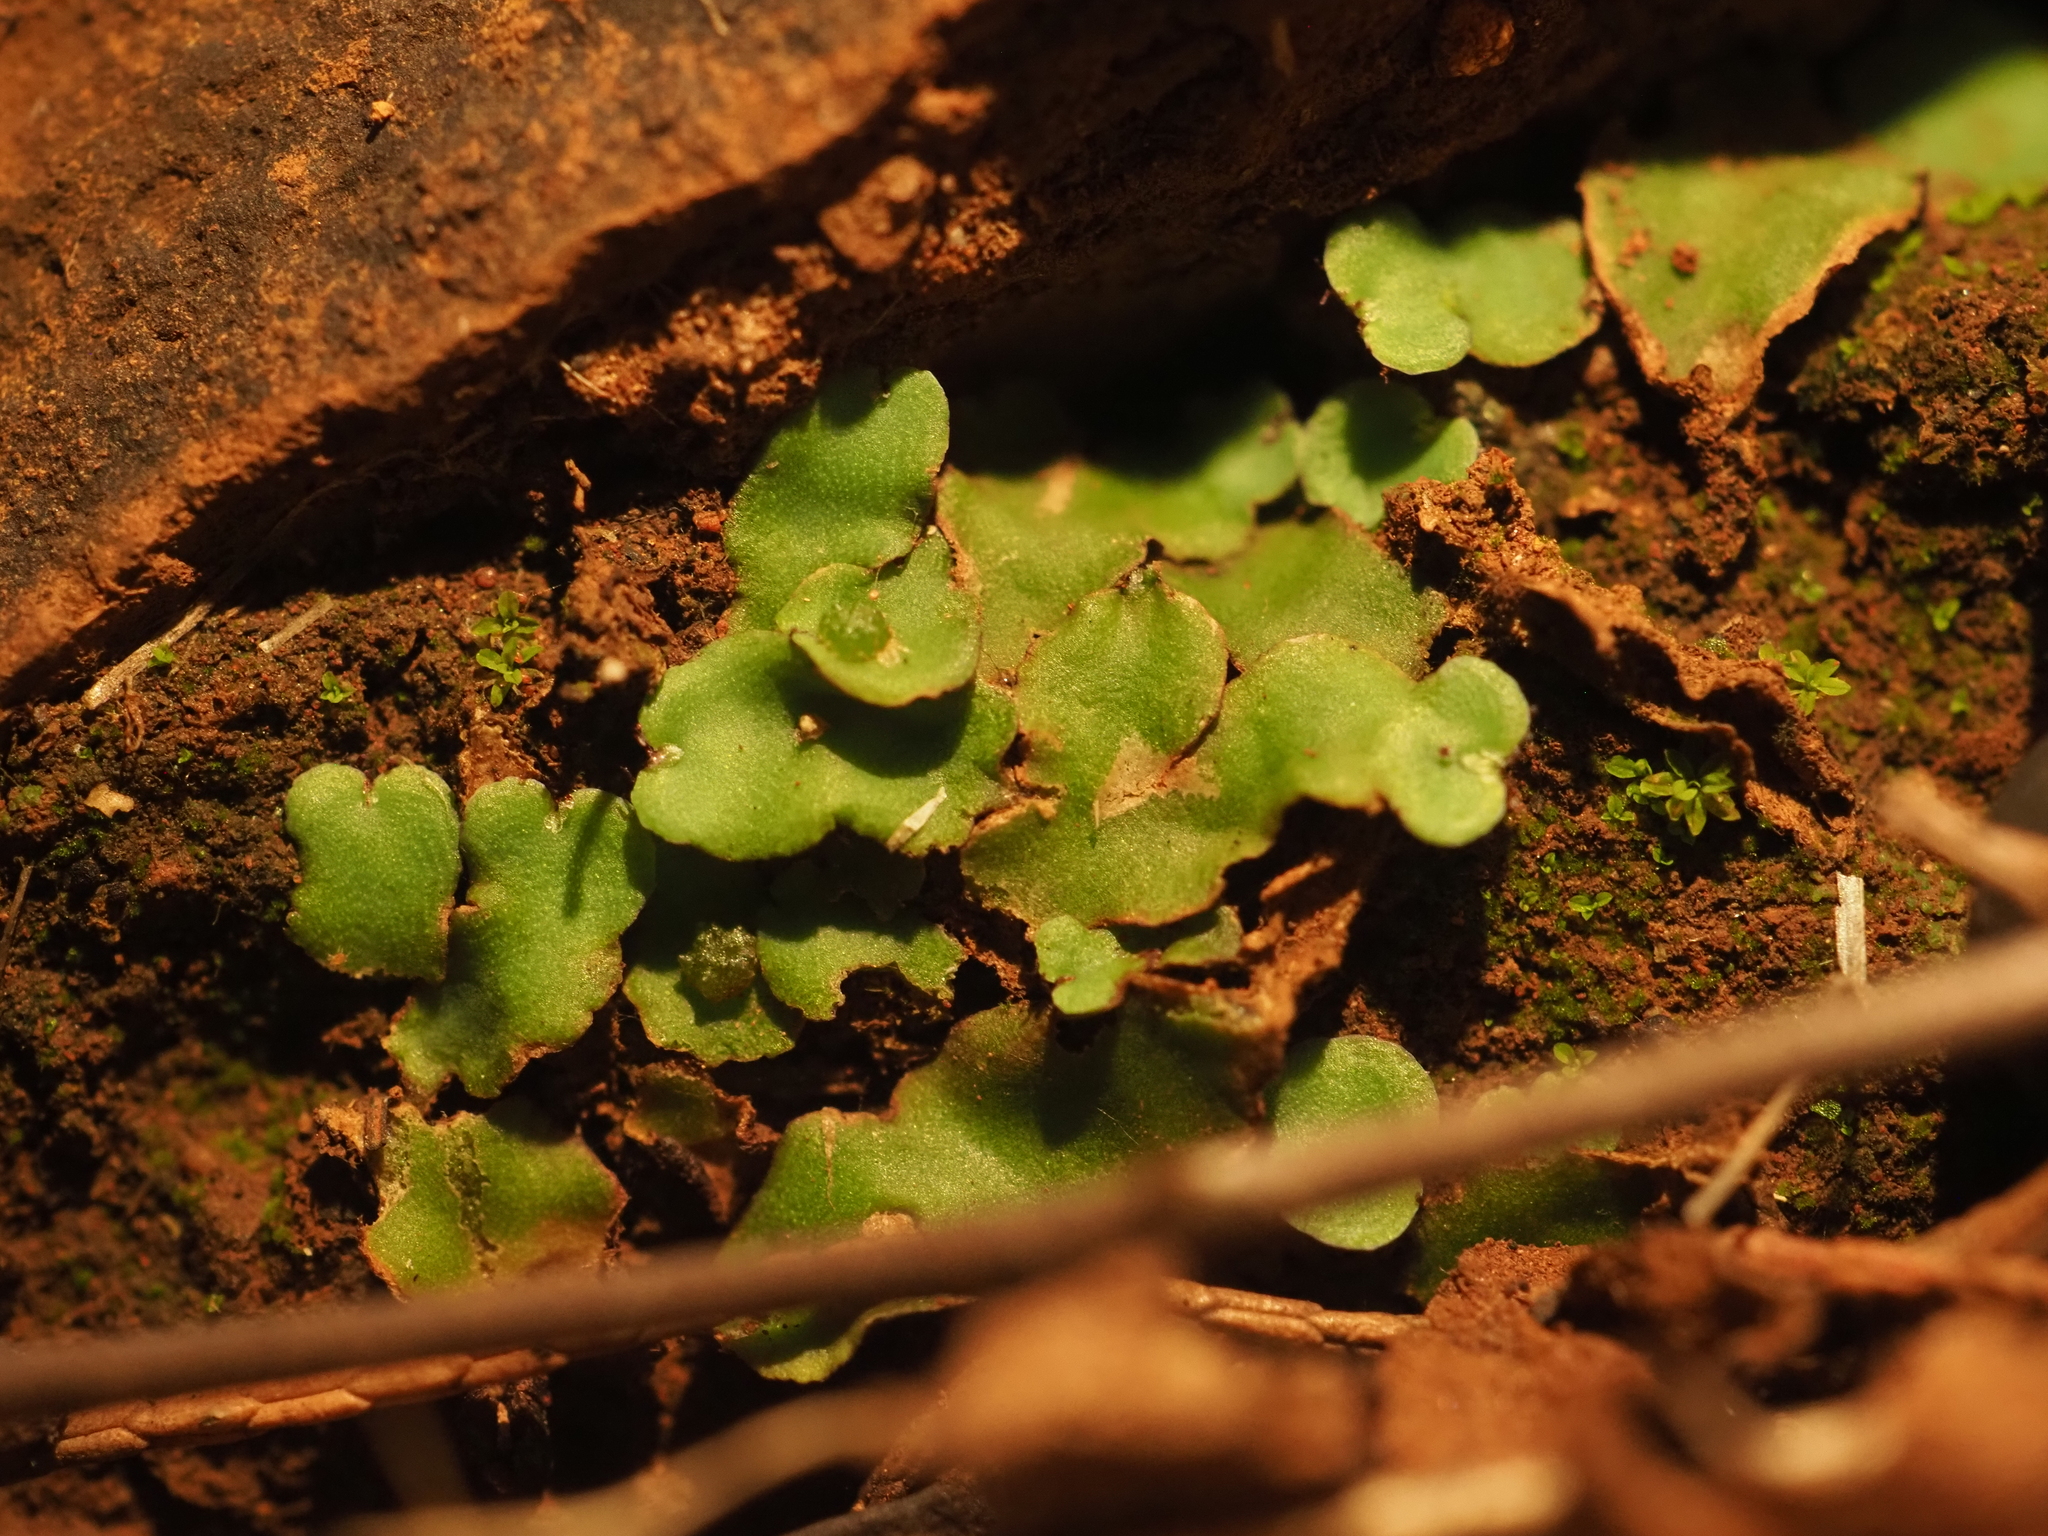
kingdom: Plantae
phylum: Marchantiophyta
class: Marchantiopsida
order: Marchantiales
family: Aytoniaceae
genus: Plagiochasma
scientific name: Plagiochasma rupestre
